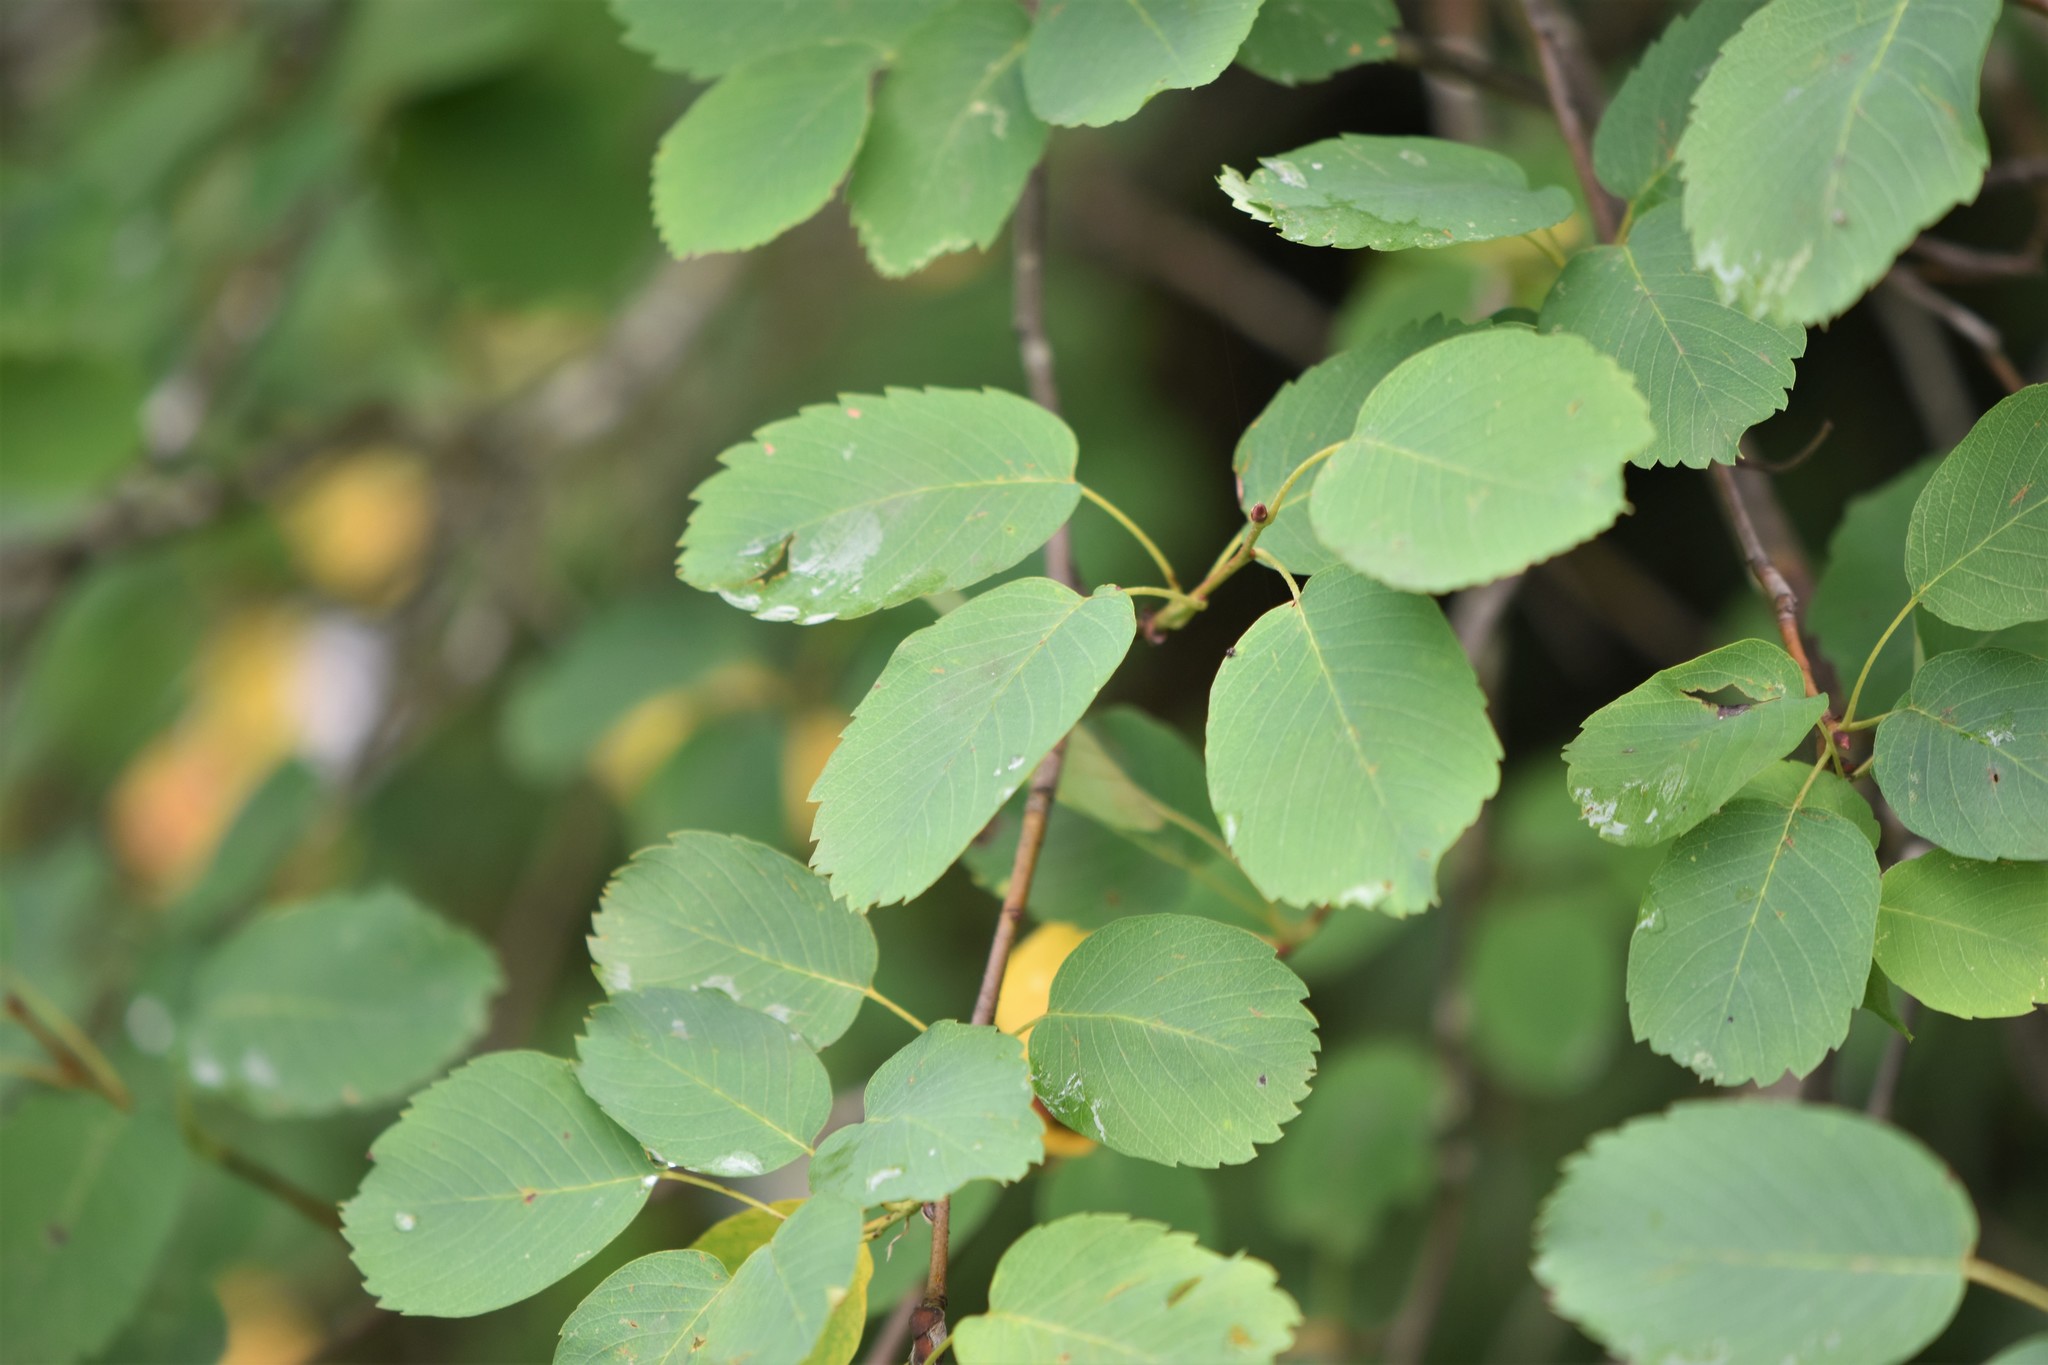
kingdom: Plantae
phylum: Tracheophyta
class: Magnoliopsida
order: Rosales
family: Rosaceae
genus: Amelanchier
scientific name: Amelanchier alnifolia
